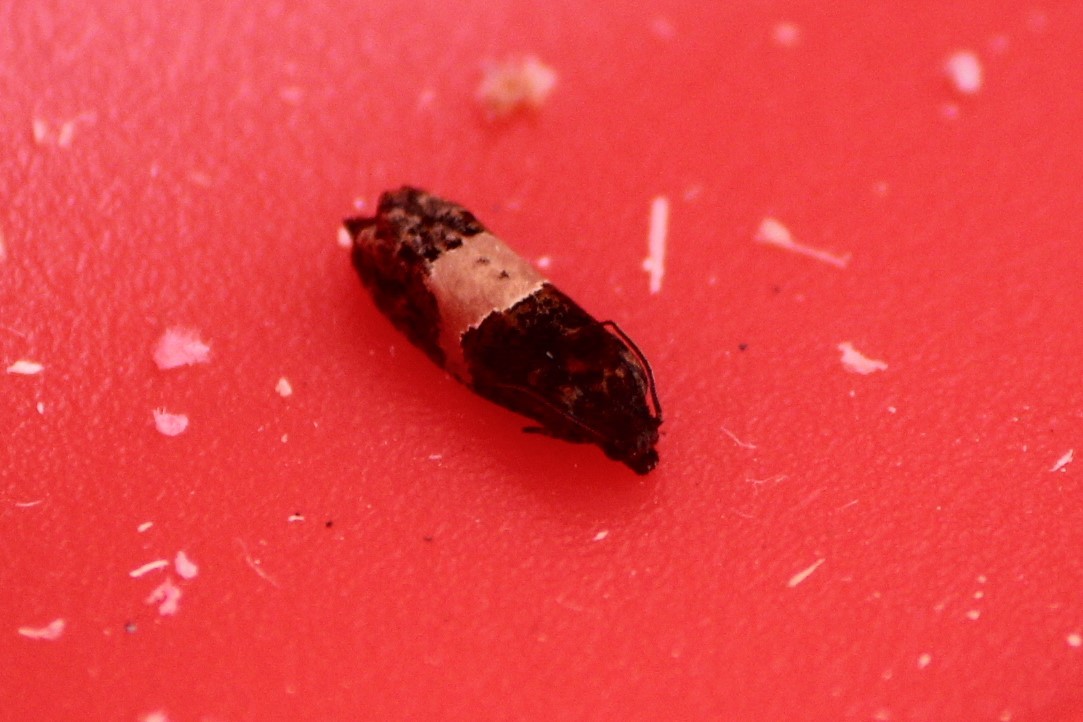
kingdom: Animalia
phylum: Arthropoda
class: Insecta
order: Lepidoptera
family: Tortricidae
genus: Epiblema
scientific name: Epiblema glenni
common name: Glenn's epiblema
